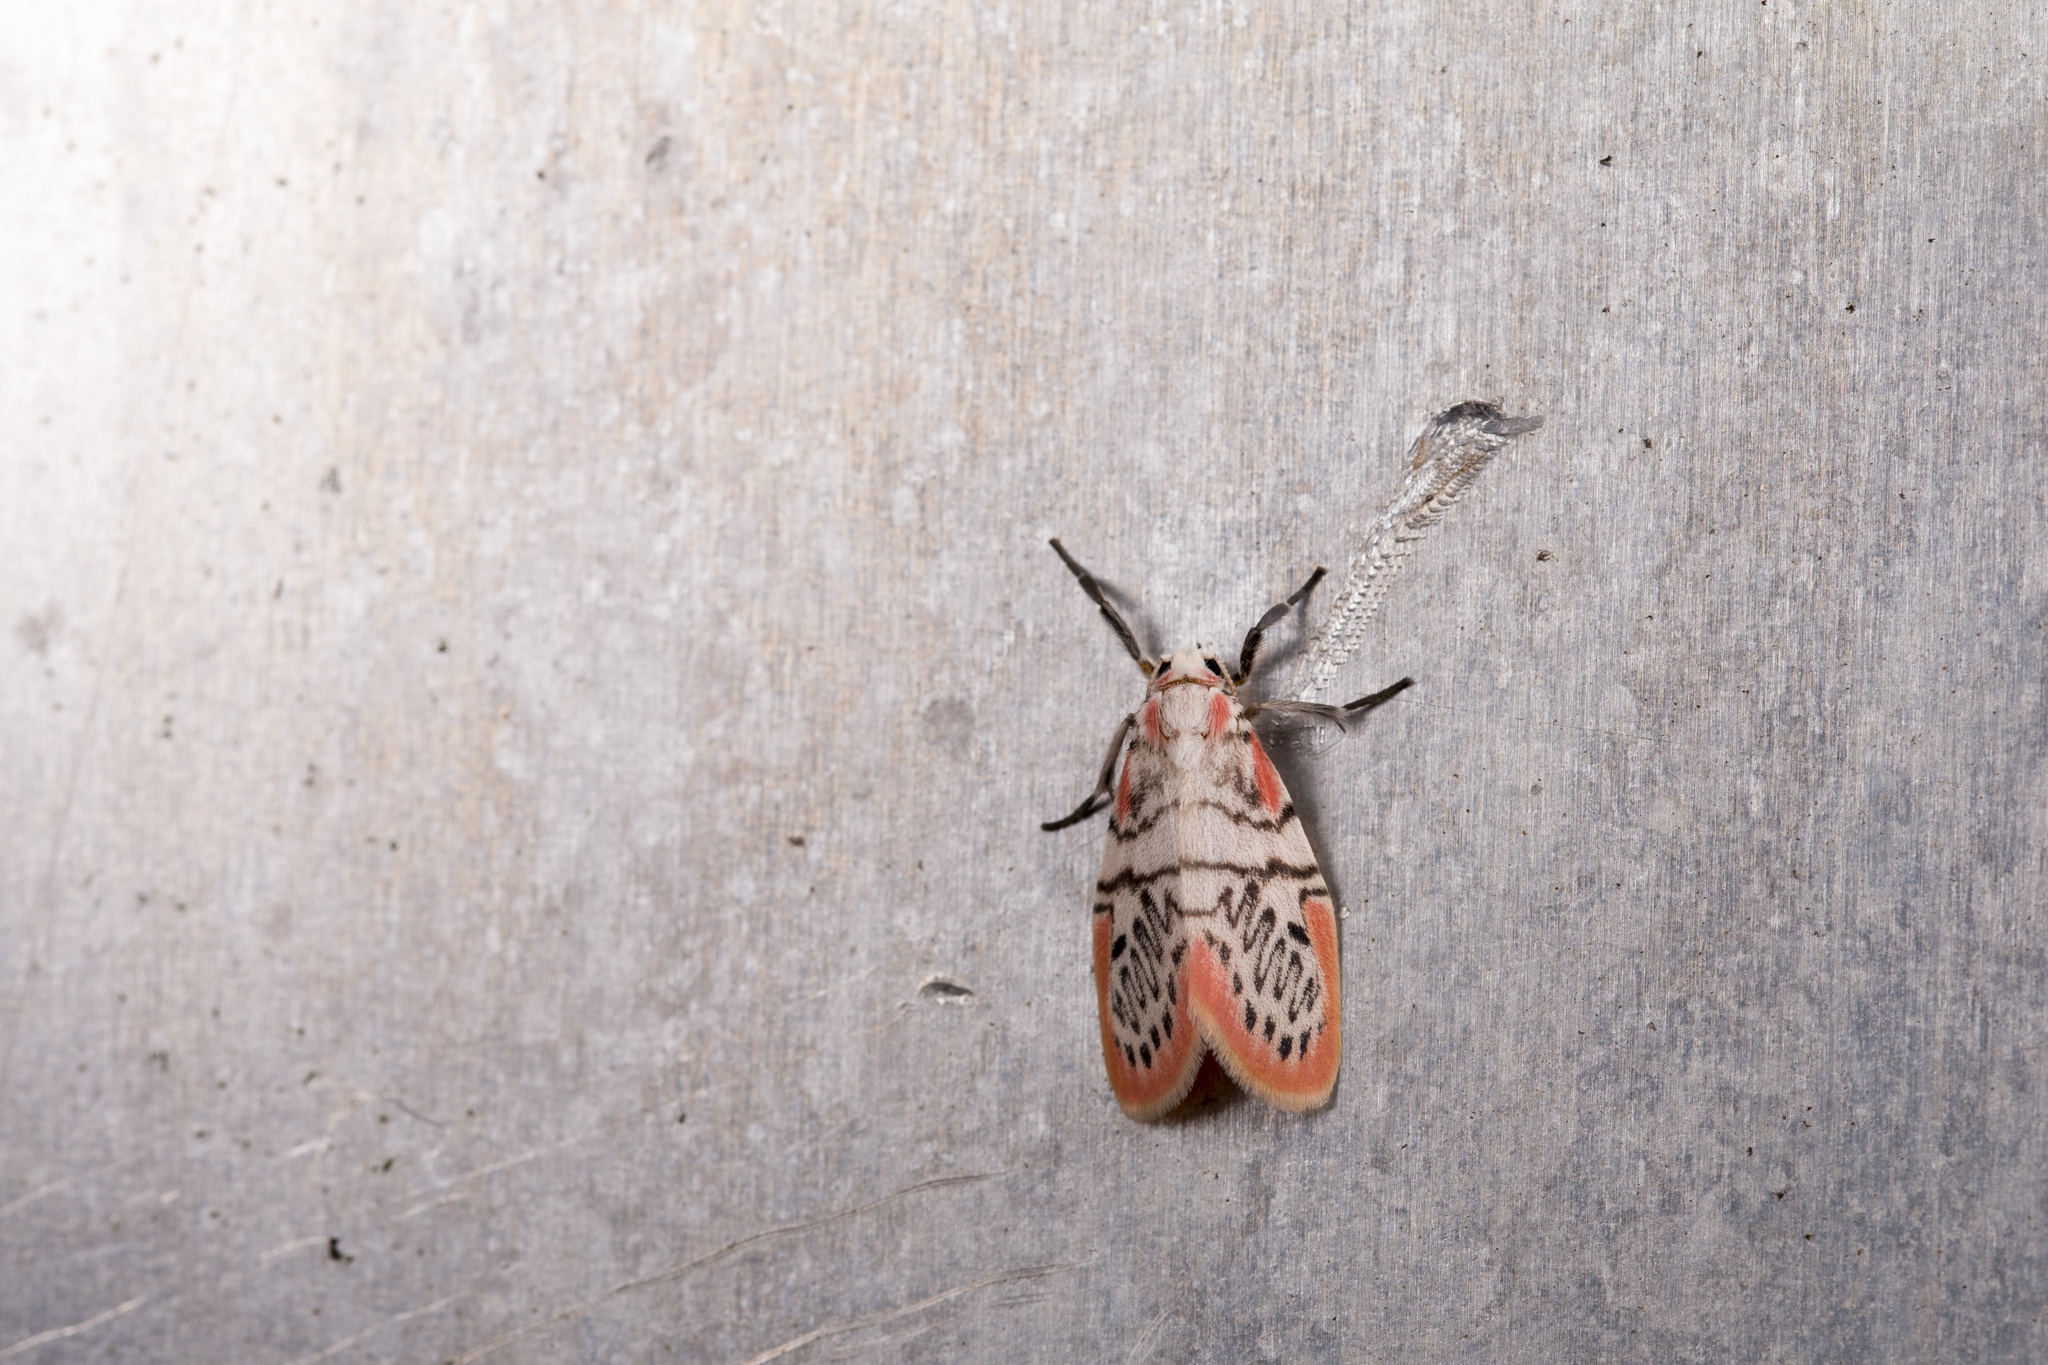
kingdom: Animalia
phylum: Arthropoda
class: Insecta
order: Lepidoptera
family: Erebidae
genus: Miltochrista
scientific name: Miltochrista ziczac
